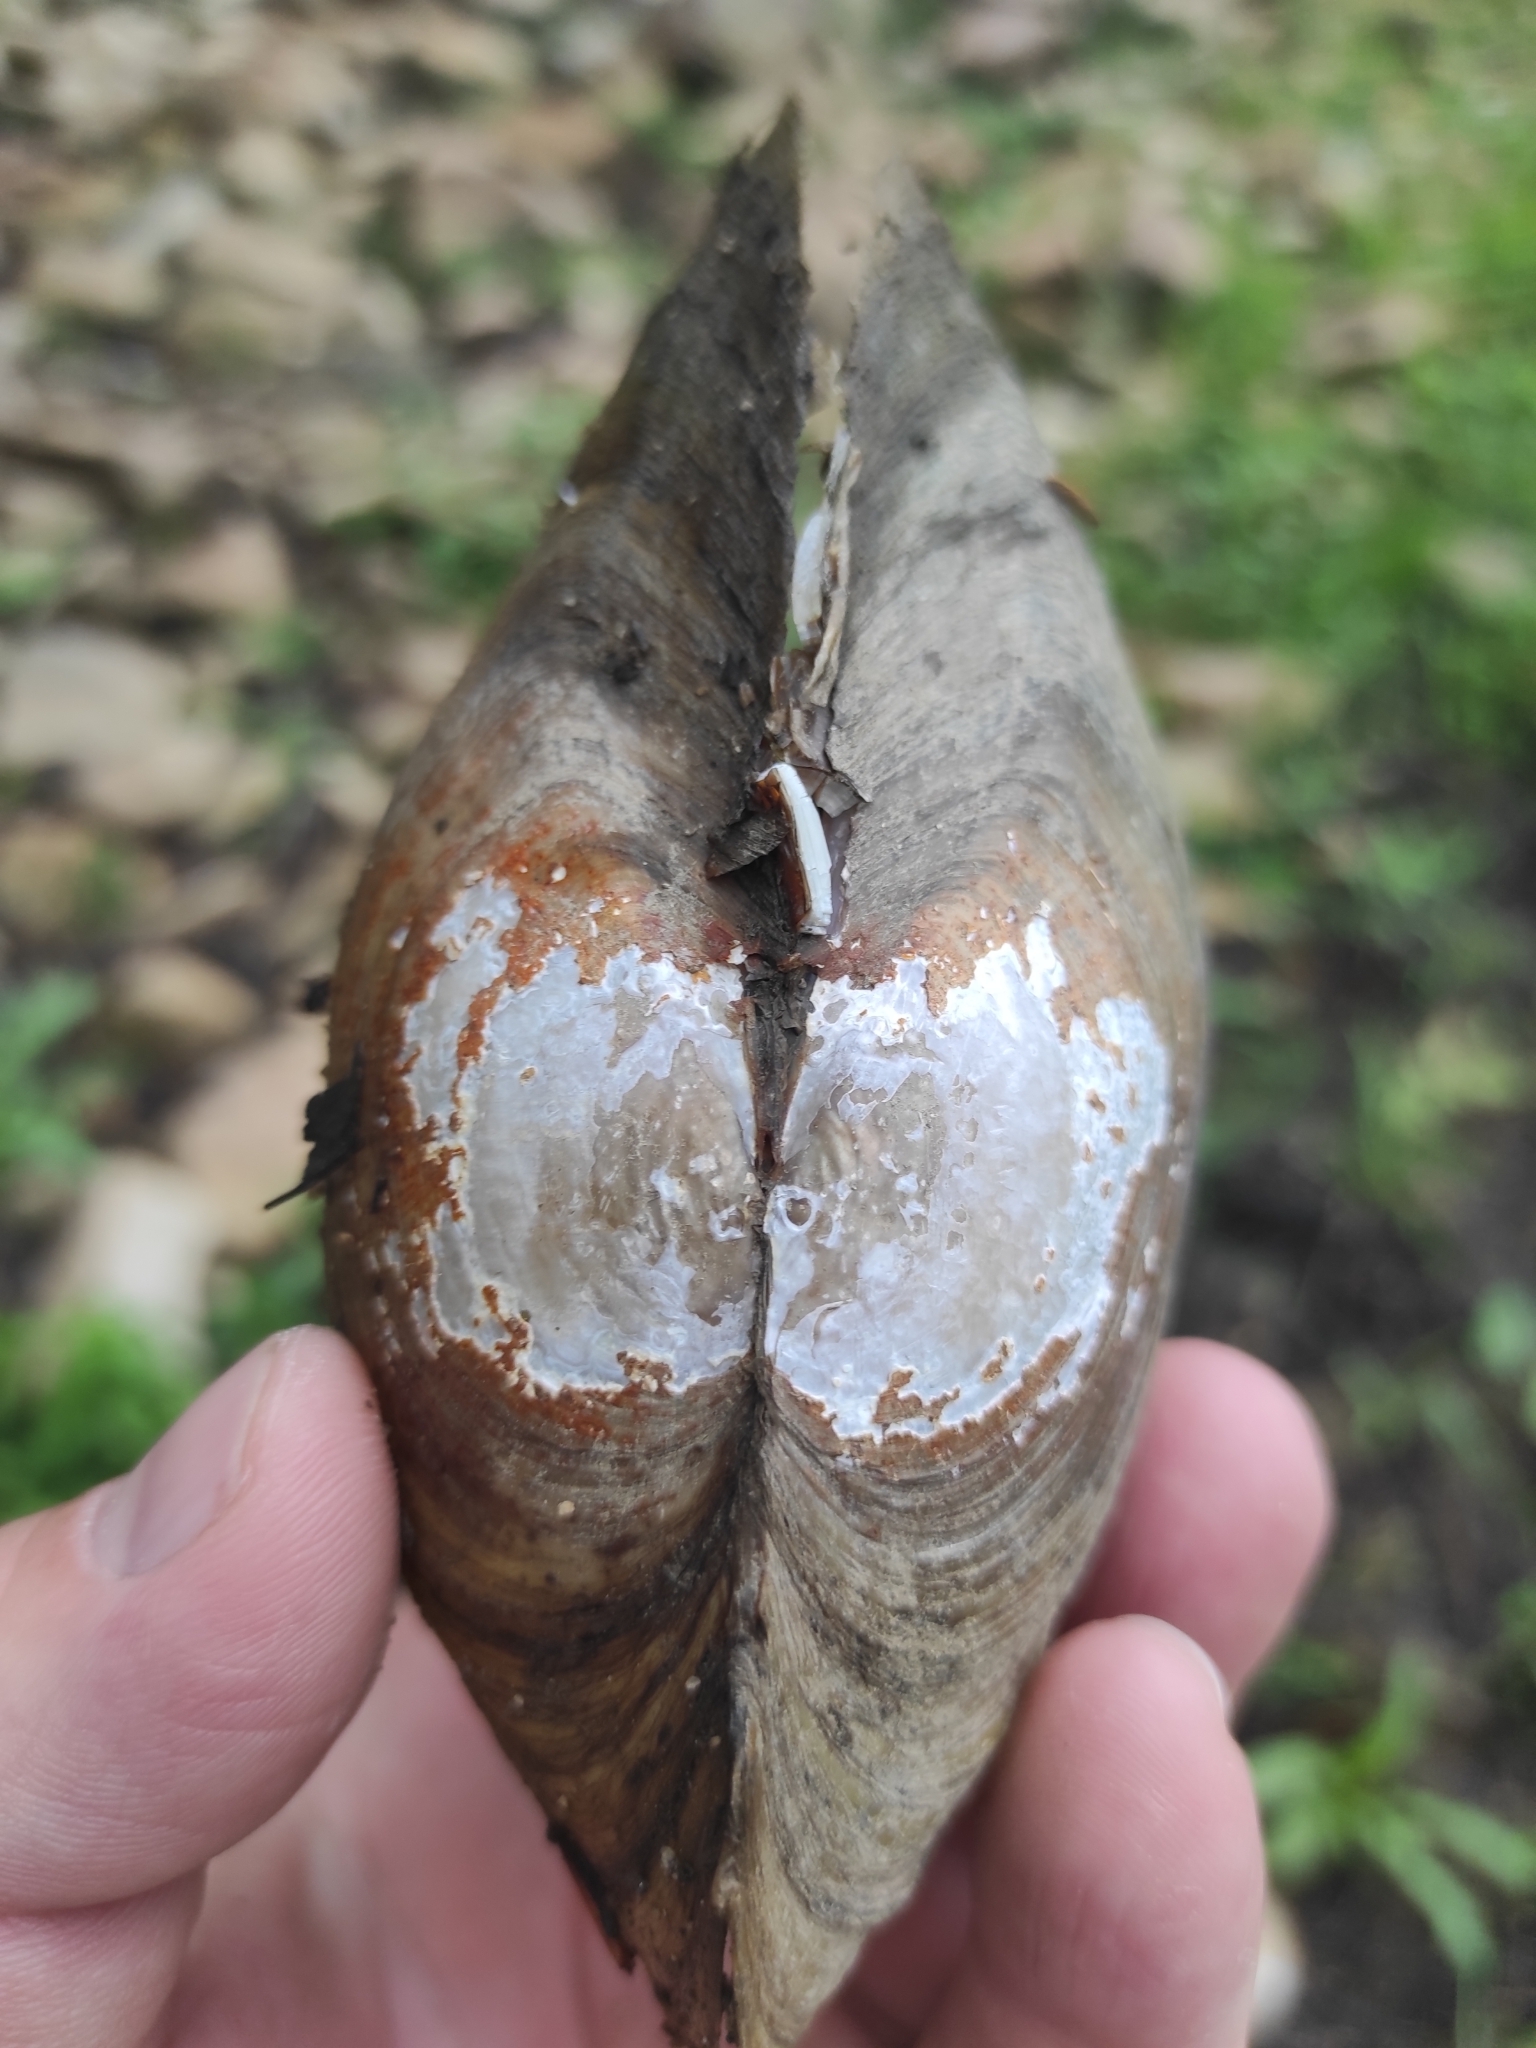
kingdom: Animalia
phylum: Mollusca
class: Bivalvia
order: Unionida
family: Unionidae
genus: Anodonta
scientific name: Anodonta cygnea
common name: Swan mussel
